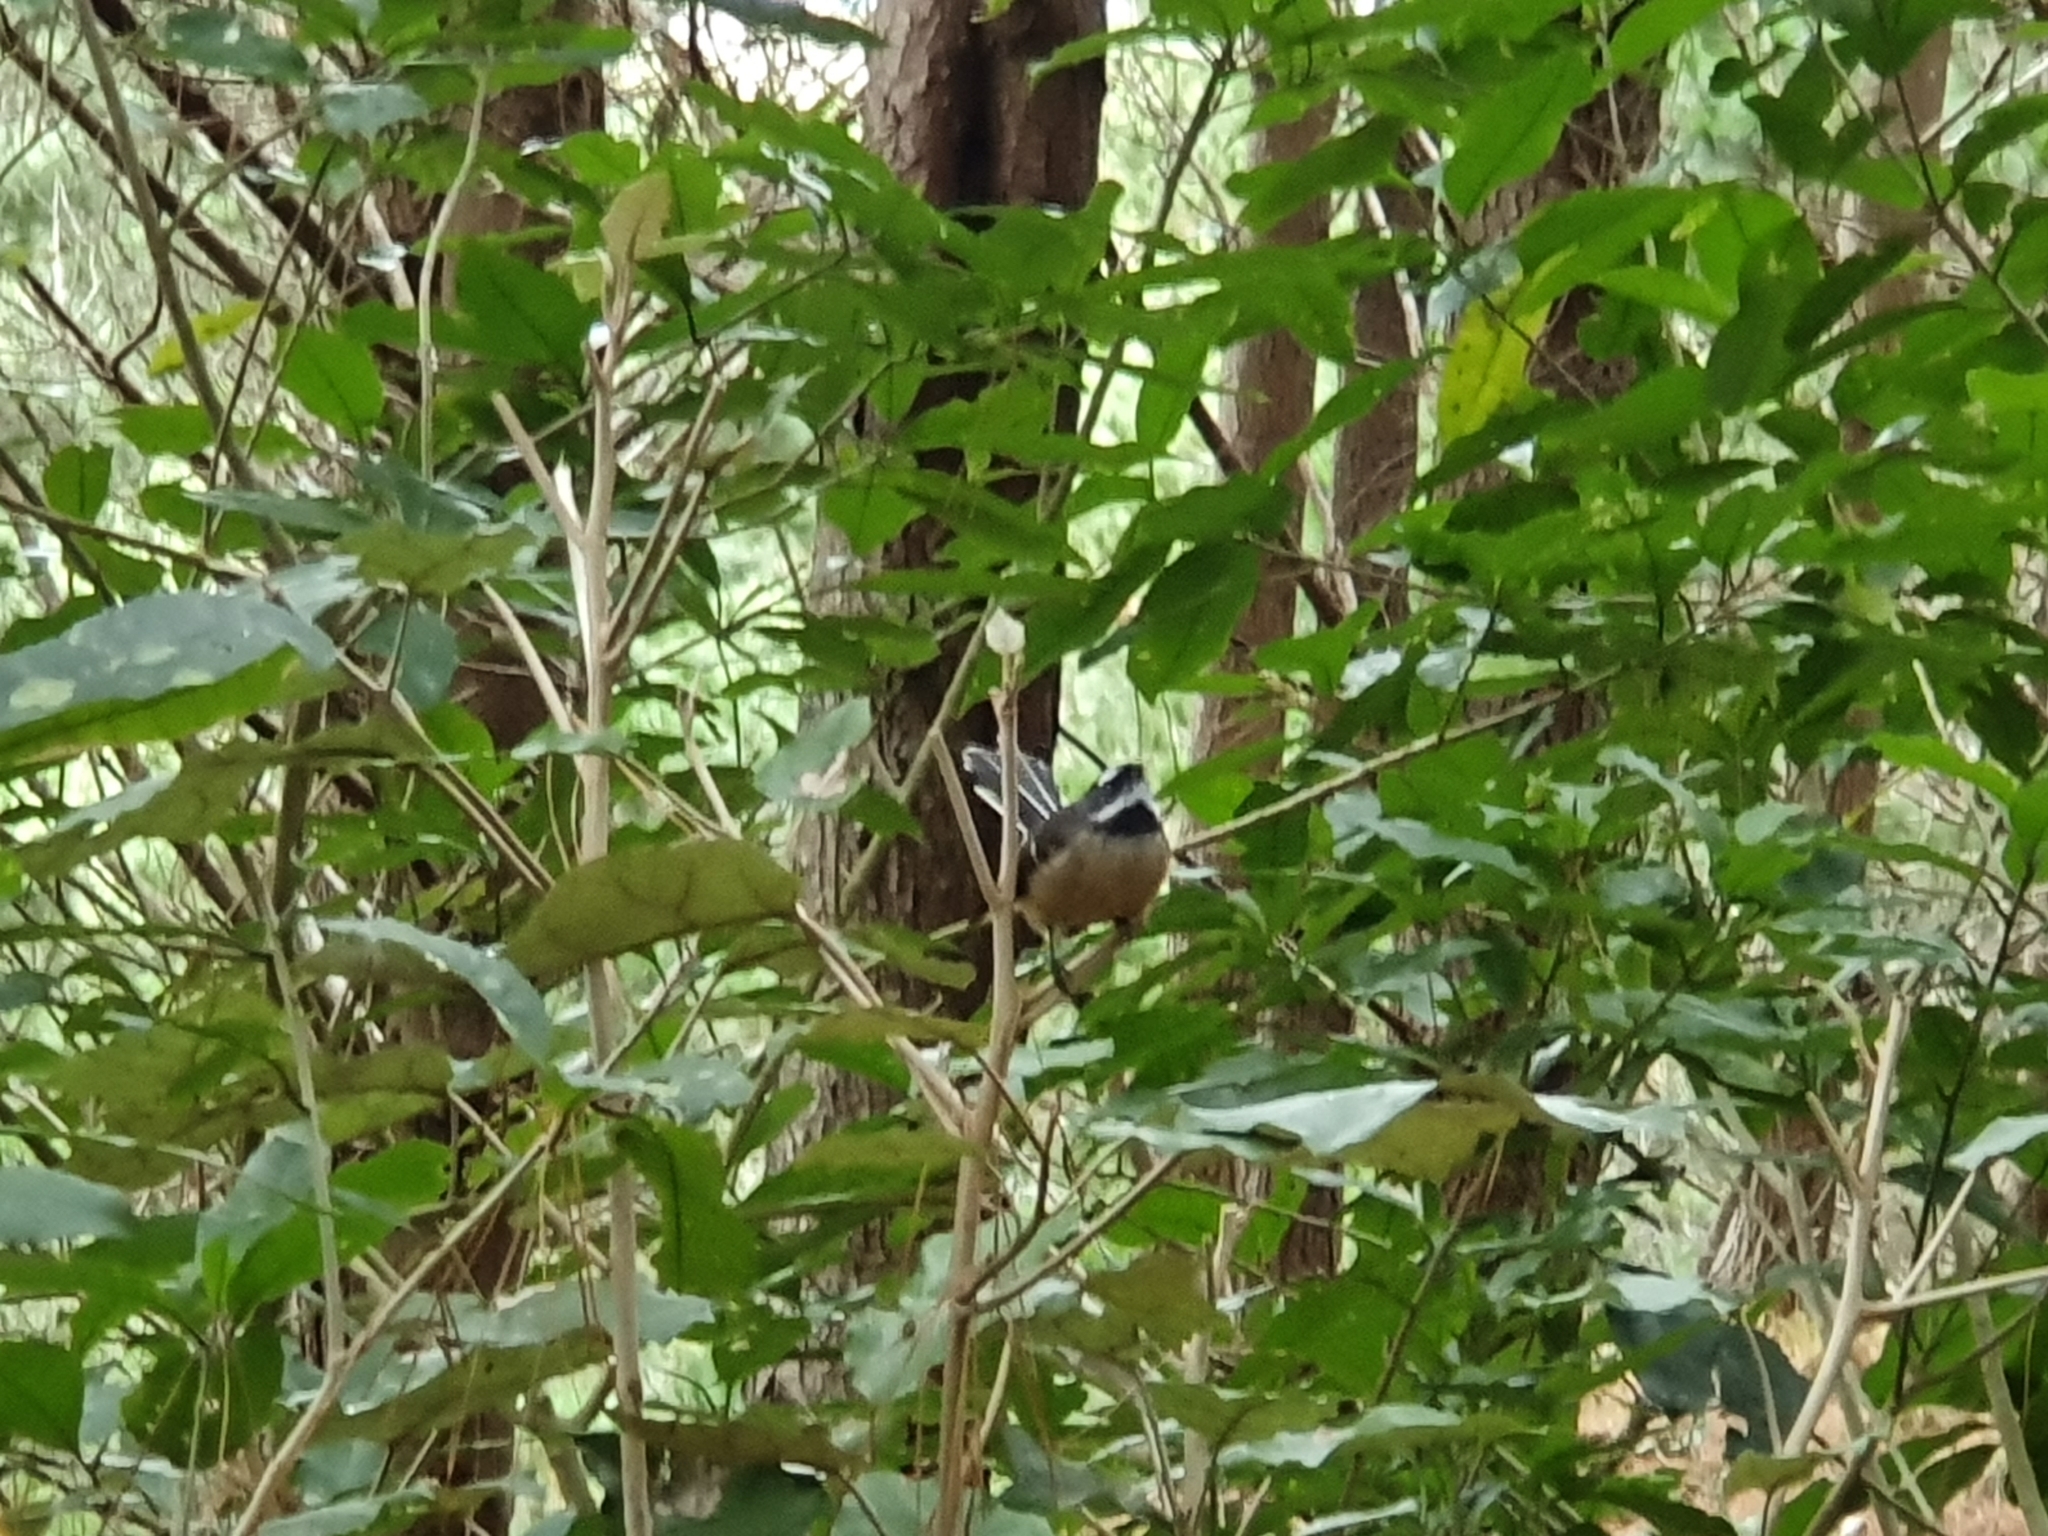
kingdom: Animalia
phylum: Chordata
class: Aves
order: Passeriformes
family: Rhipiduridae
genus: Rhipidura
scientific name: Rhipidura fuliginosa
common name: New zealand fantail
